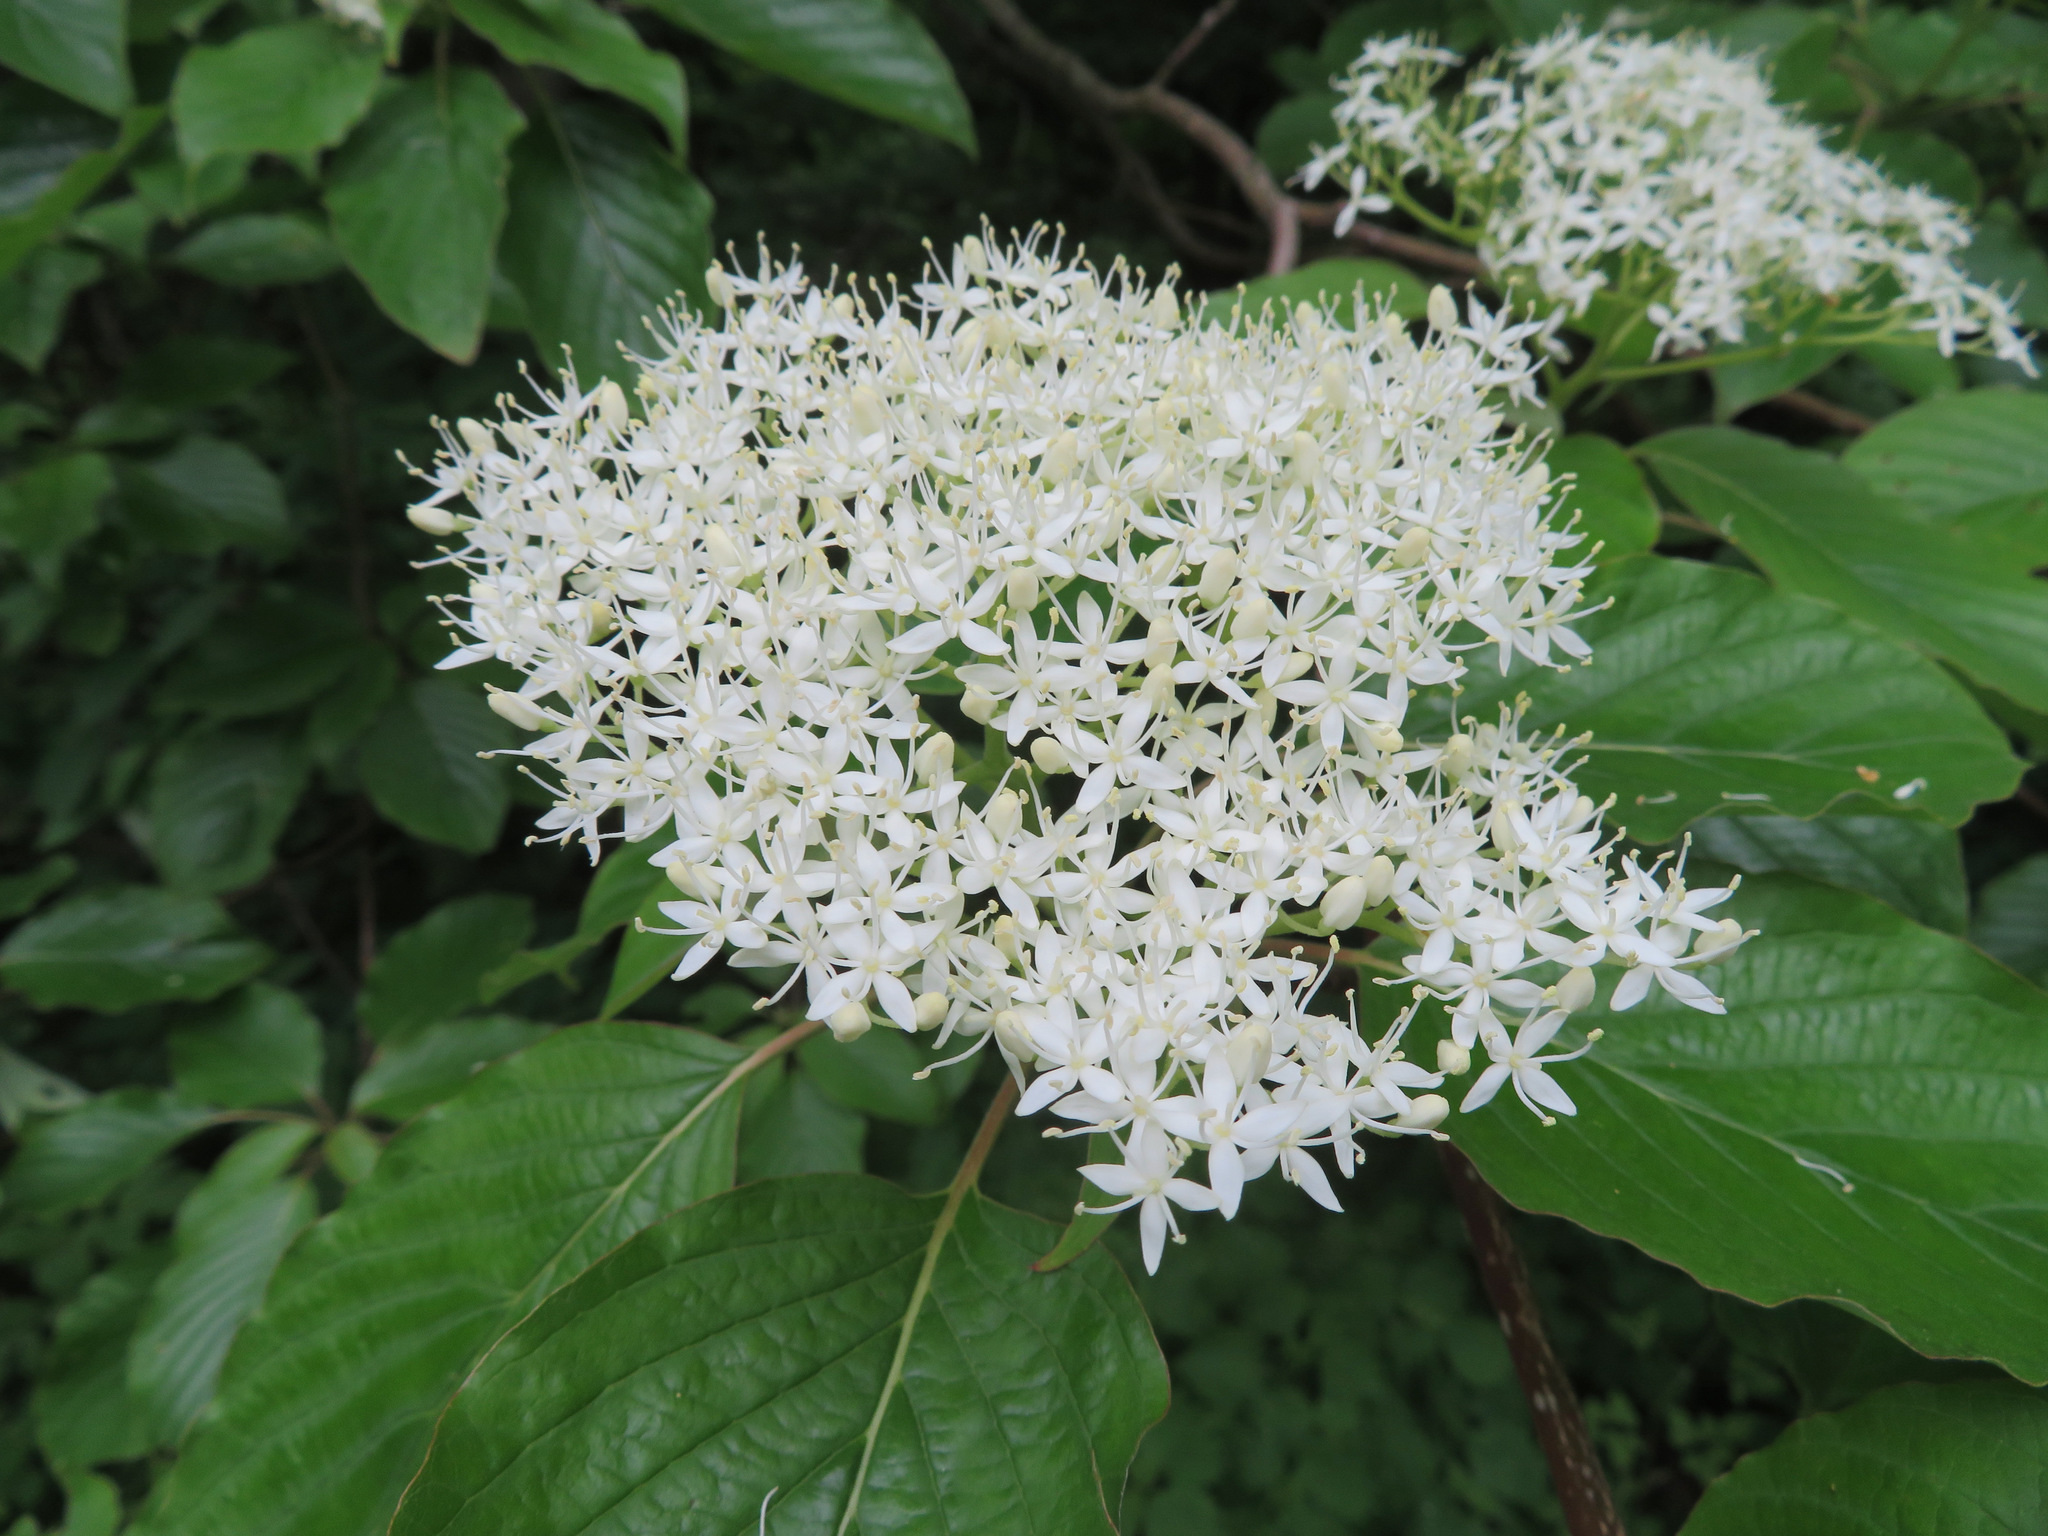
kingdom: Plantae
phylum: Tracheophyta
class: Magnoliopsida
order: Cornales
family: Cornaceae
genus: Cornus
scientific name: Cornus controversa
